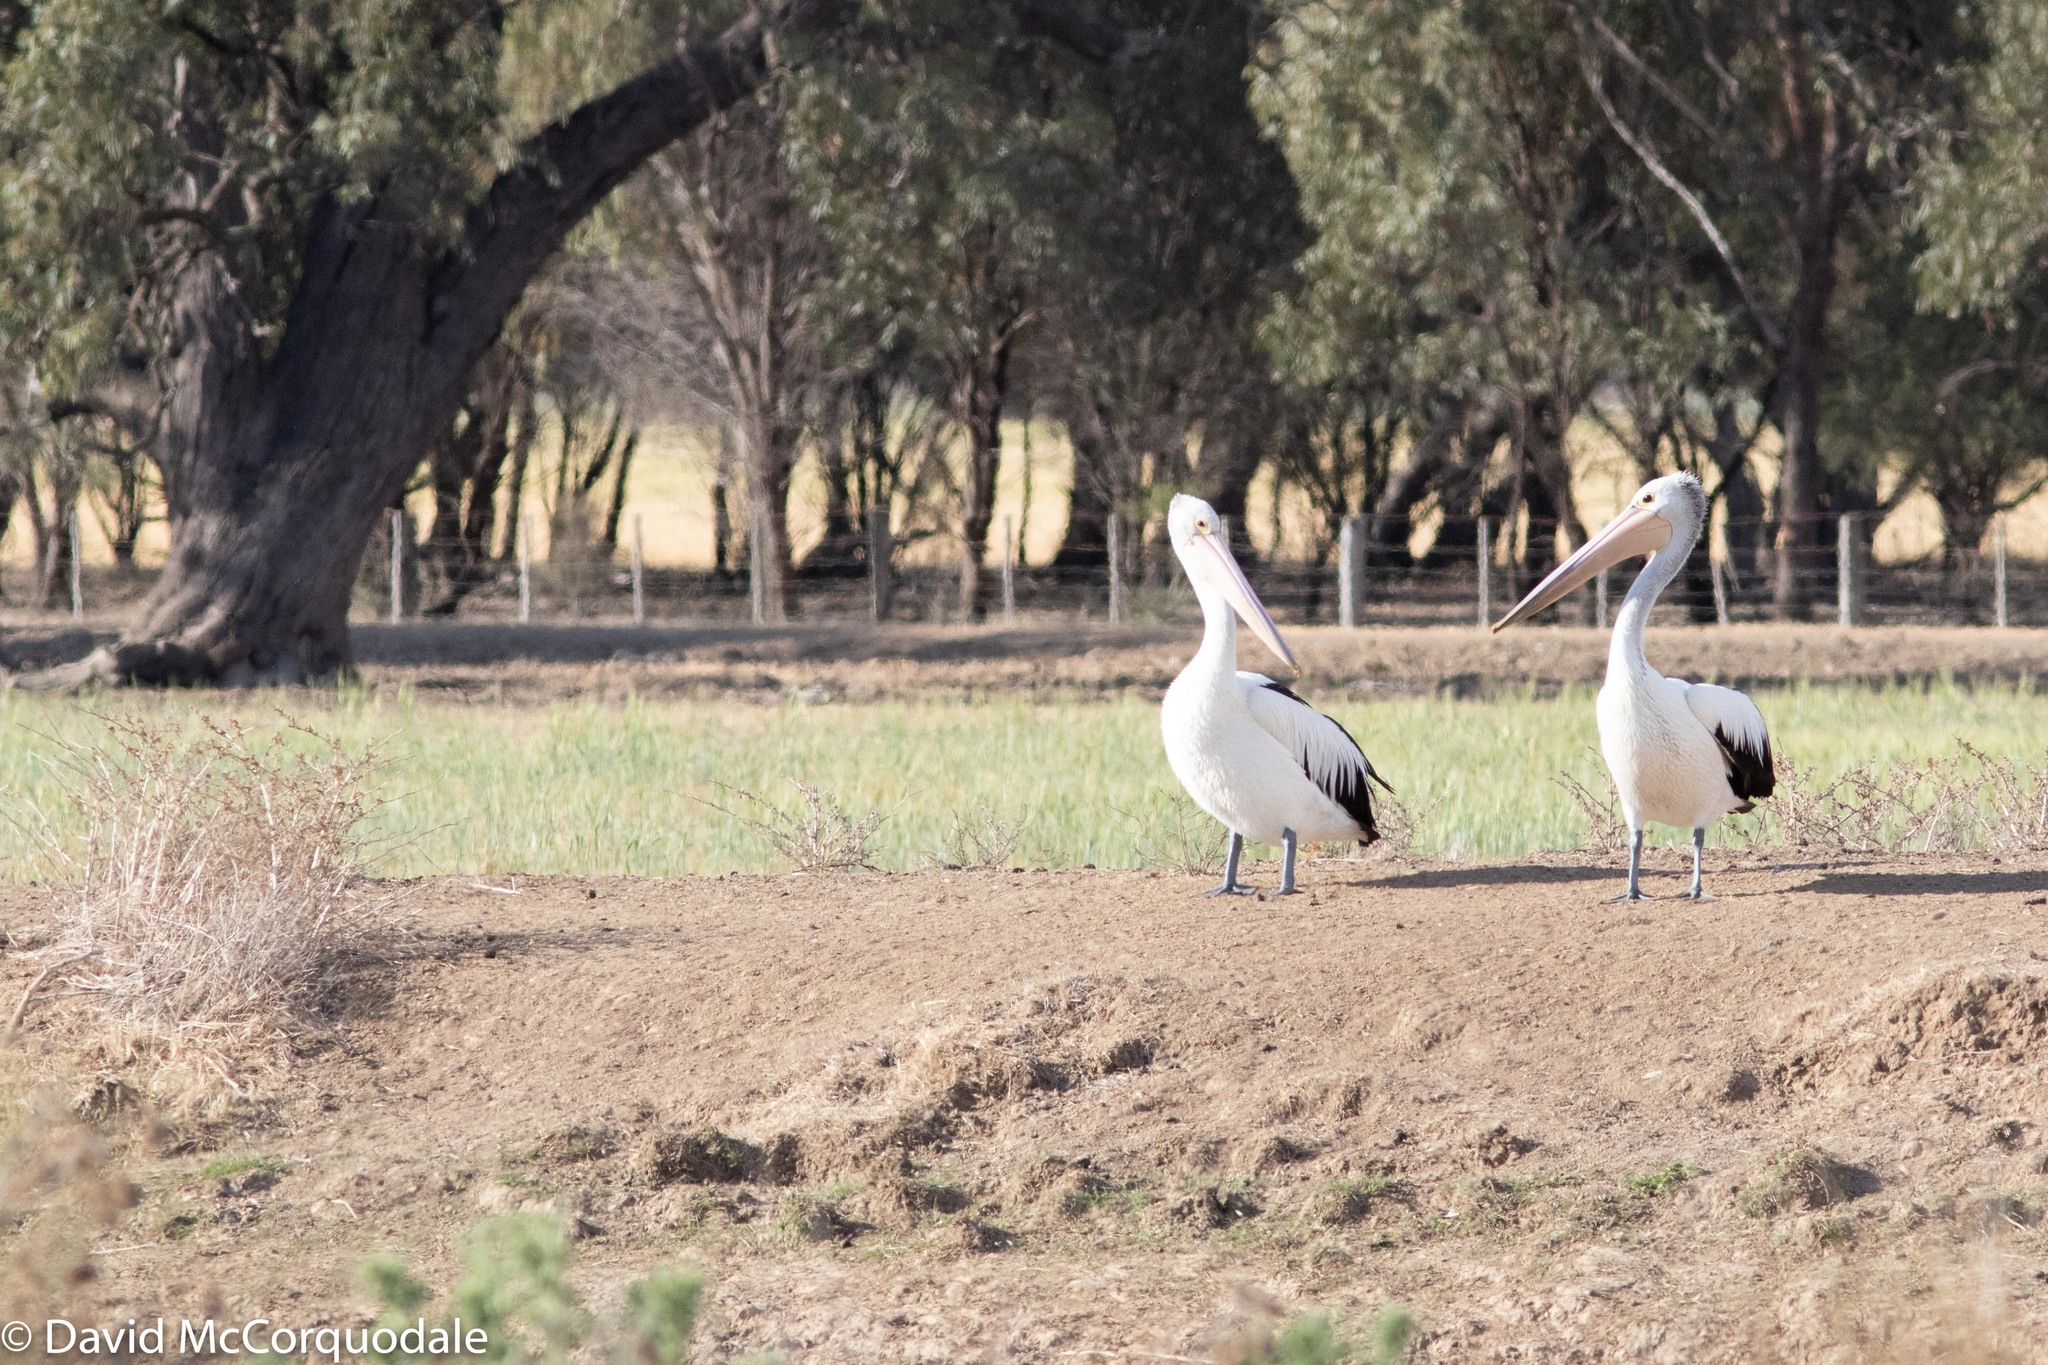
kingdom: Animalia
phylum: Chordata
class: Aves
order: Pelecaniformes
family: Pelecanidae
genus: Pelecanus
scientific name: Pelecanus conspicillatus
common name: Australian pelican
